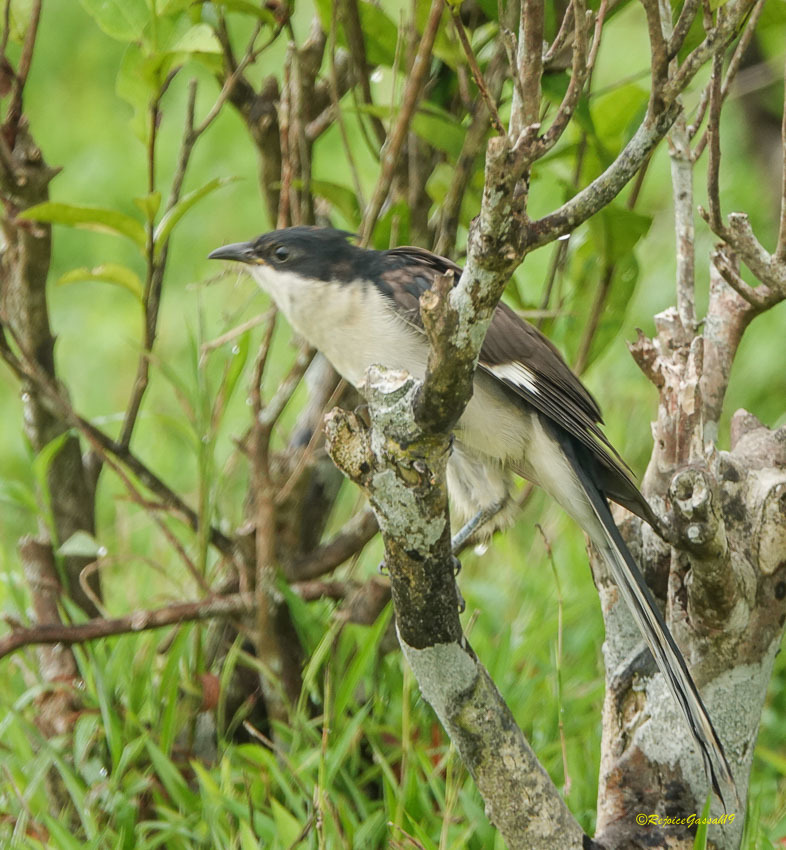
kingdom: Animalia
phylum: Chordata
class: Aves
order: Cuculiformes
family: Cuculidae
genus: Clamator
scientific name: Clamator jacobinus
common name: Jacobin cuckoo
